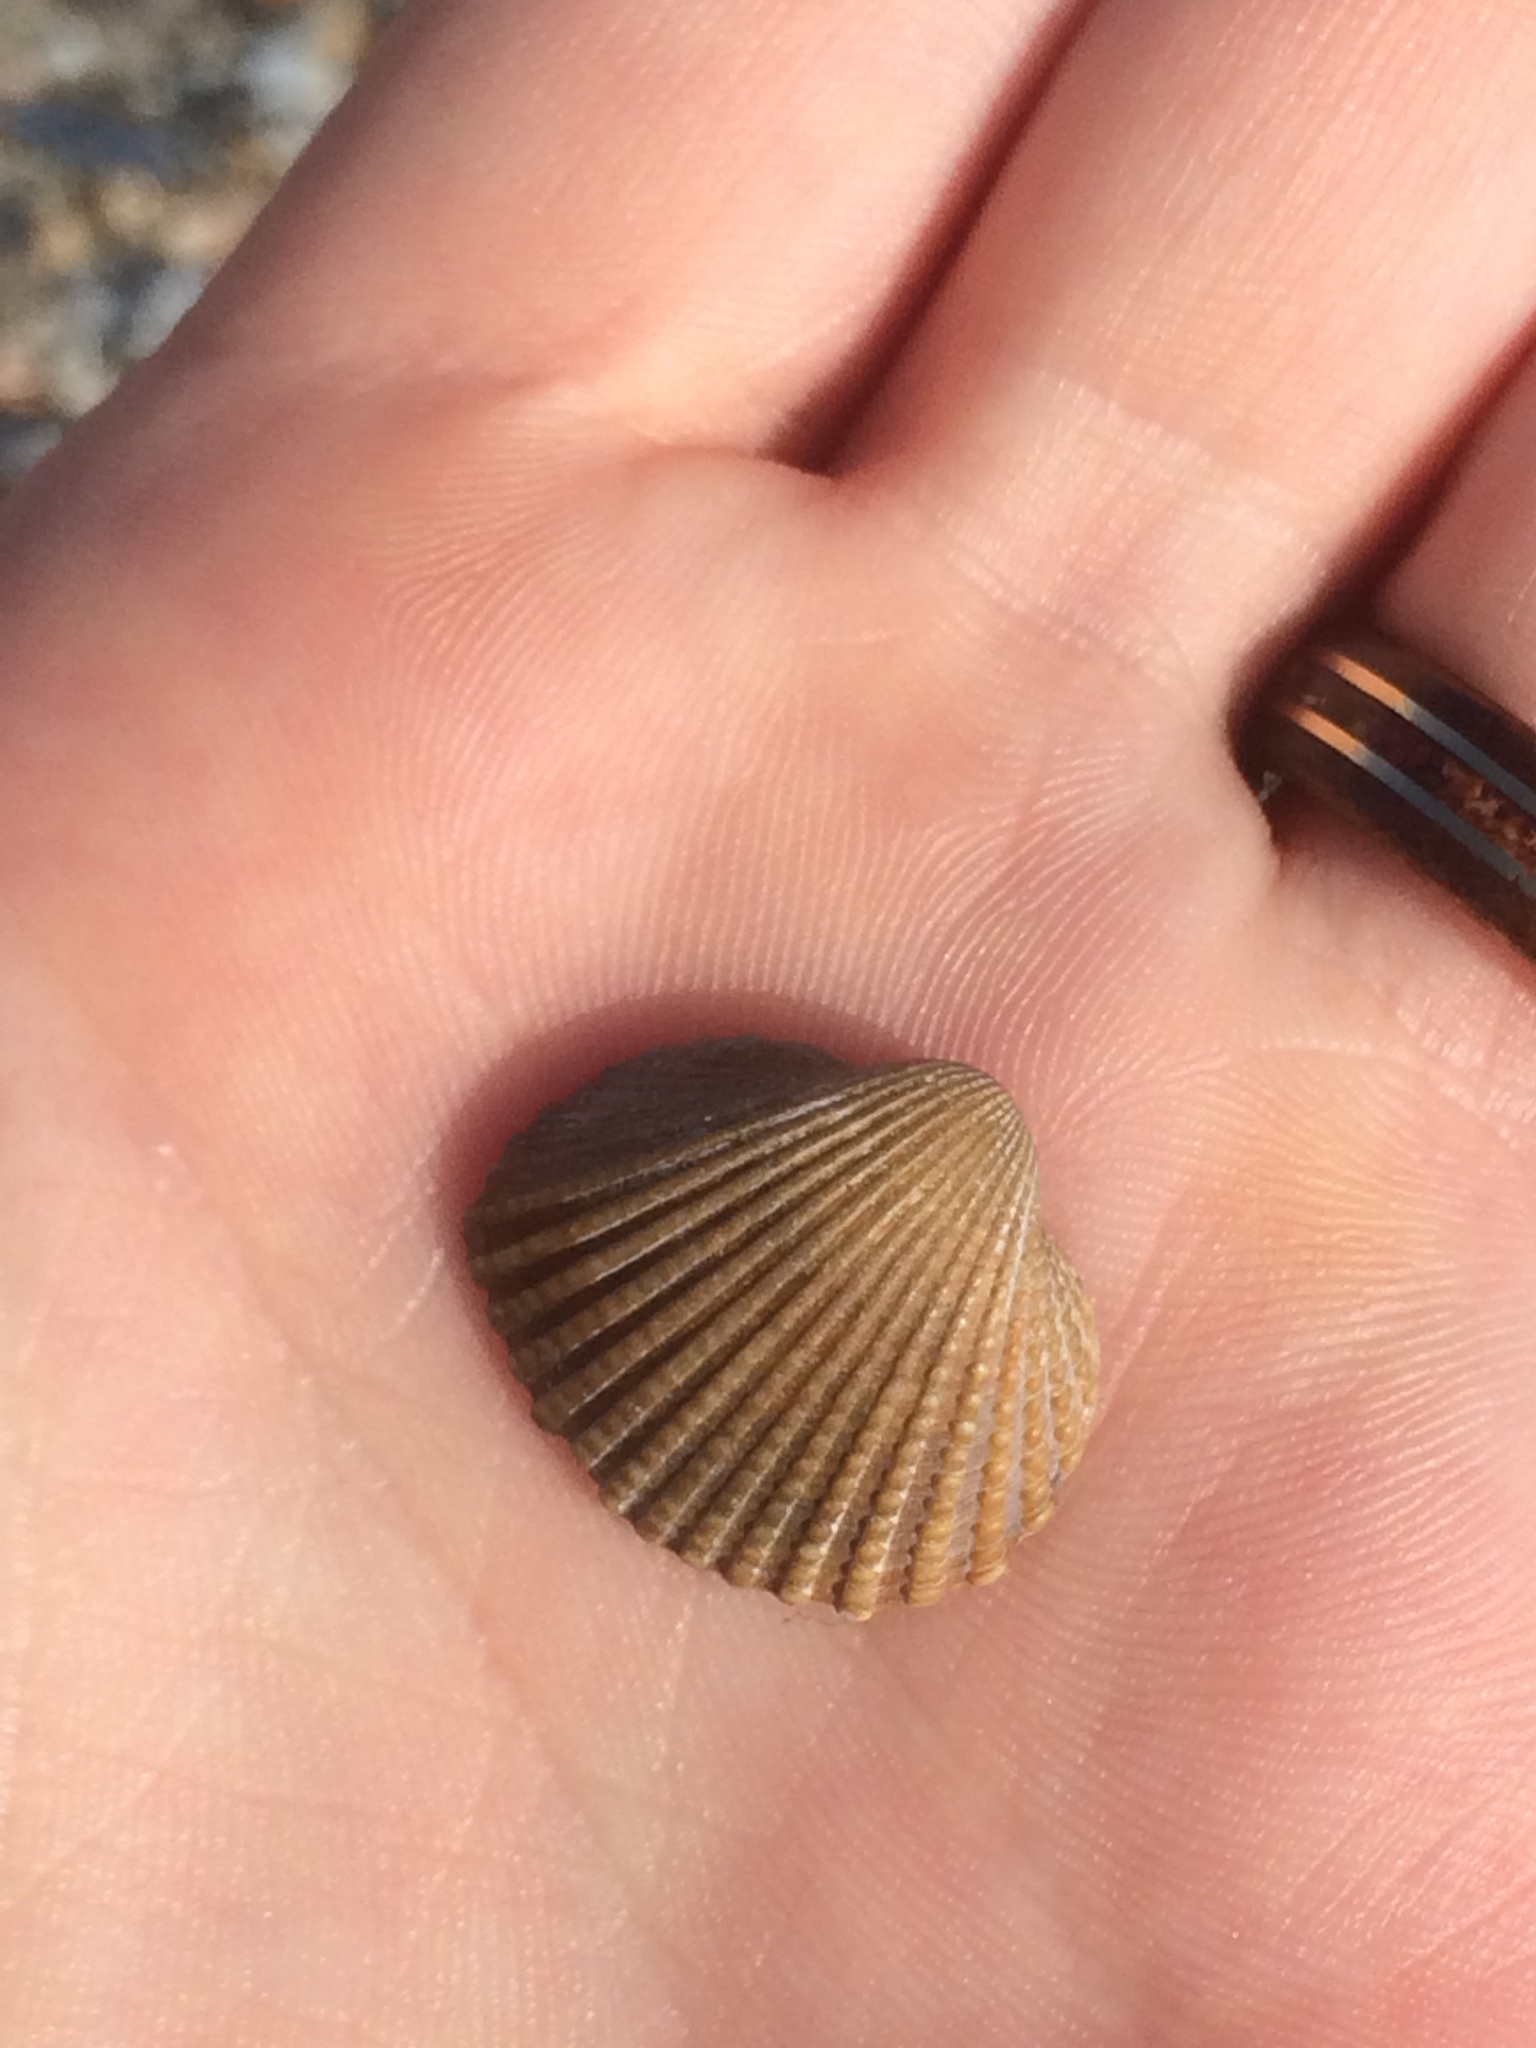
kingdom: Animalia
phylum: Mollusca
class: Bivalvia
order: Arcida
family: Arcidae
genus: Anadara
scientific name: Anadara brasiliana
